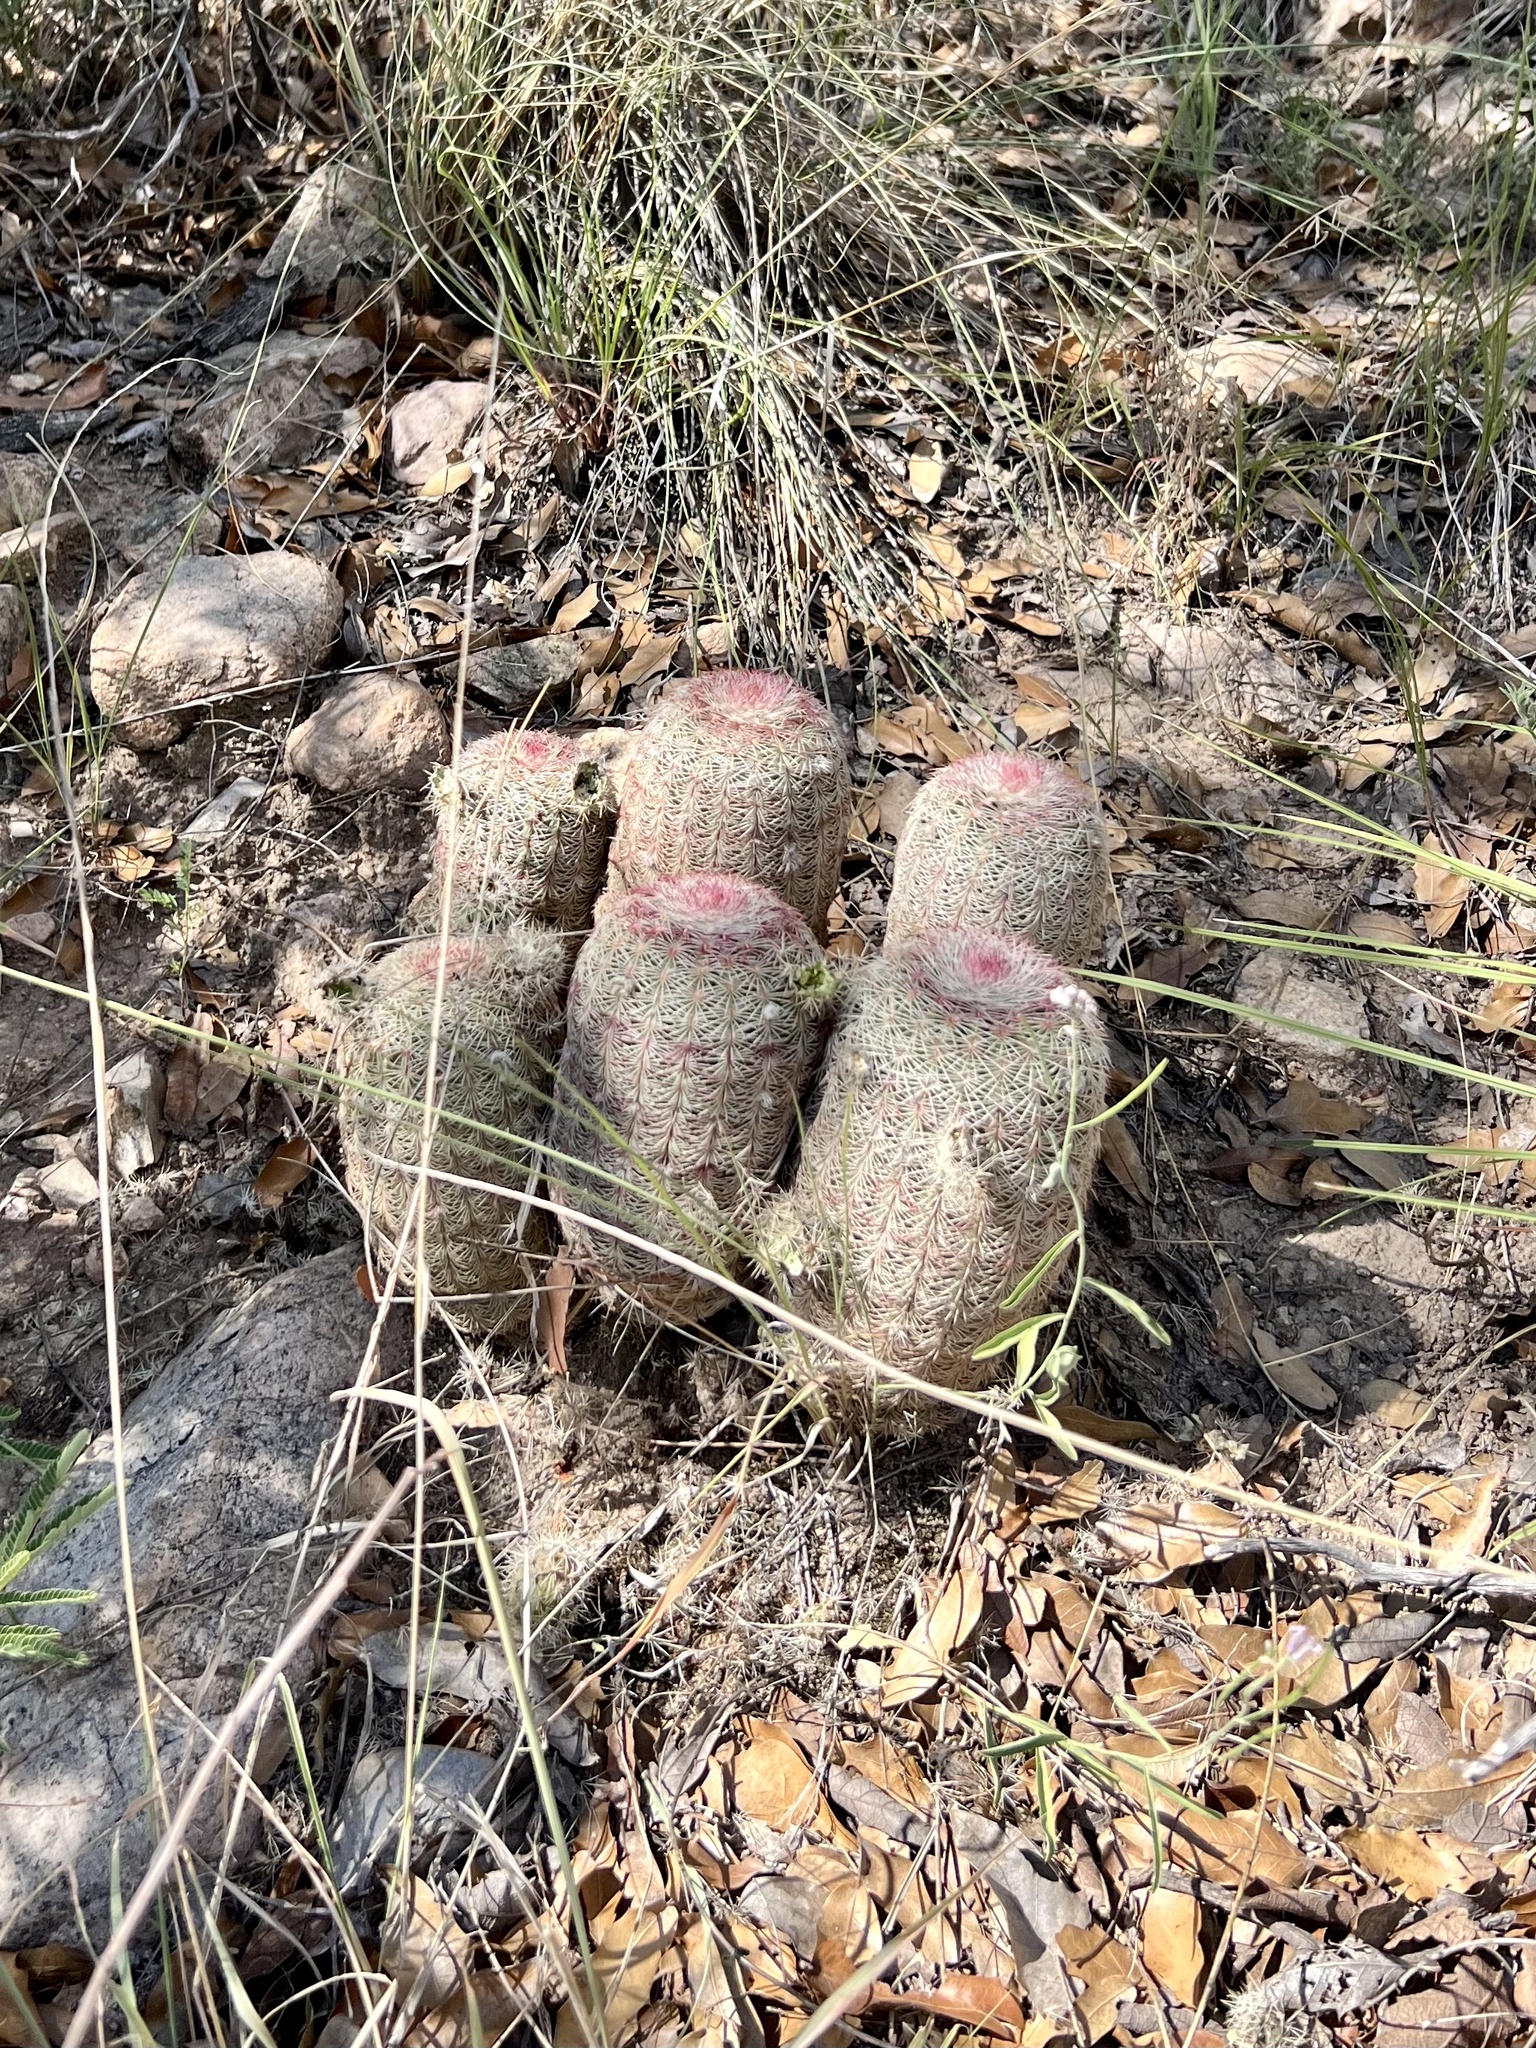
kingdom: Plantae
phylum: Tracheophyta
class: Magnoliopsida
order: Caryophyllales
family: Cactaceae
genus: Echinocereus
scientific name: Echinocereus rigidissimus
